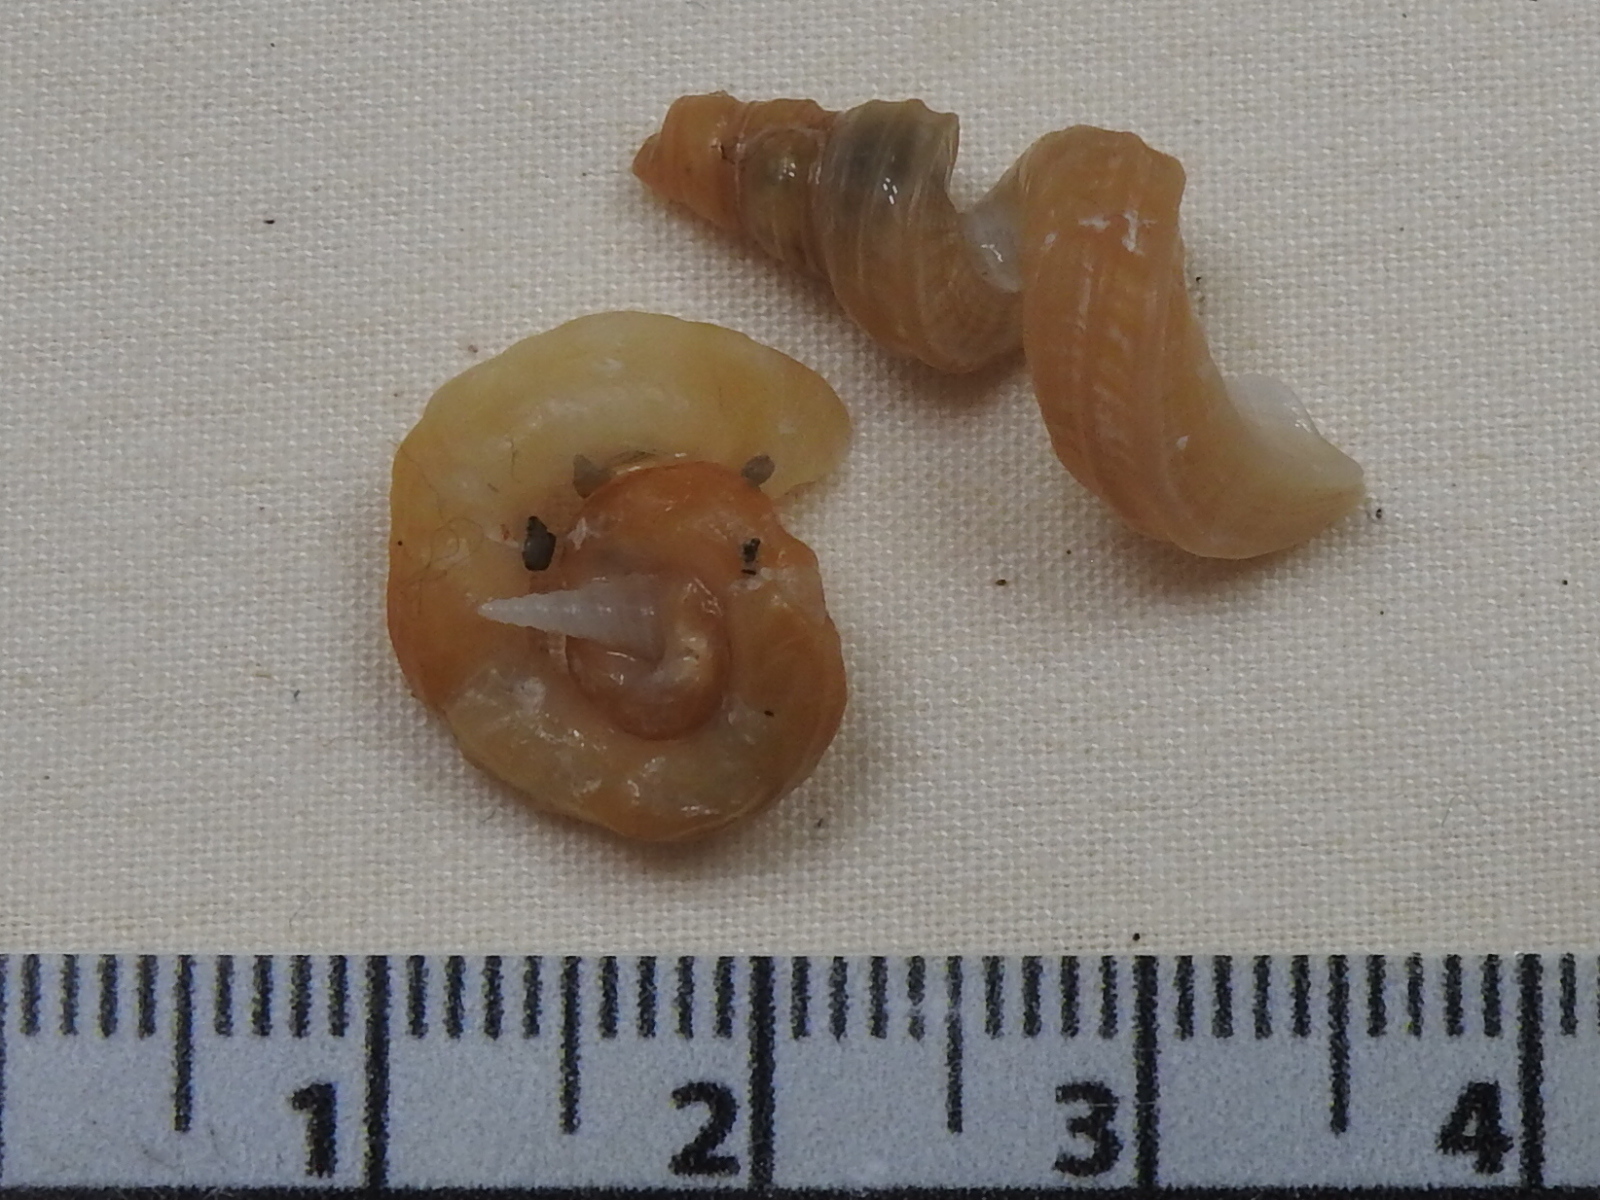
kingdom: Animalia
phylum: Mollusca
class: Gastropoda
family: Turritellidae
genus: Vermicularia
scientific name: Vermicularia fargoi
